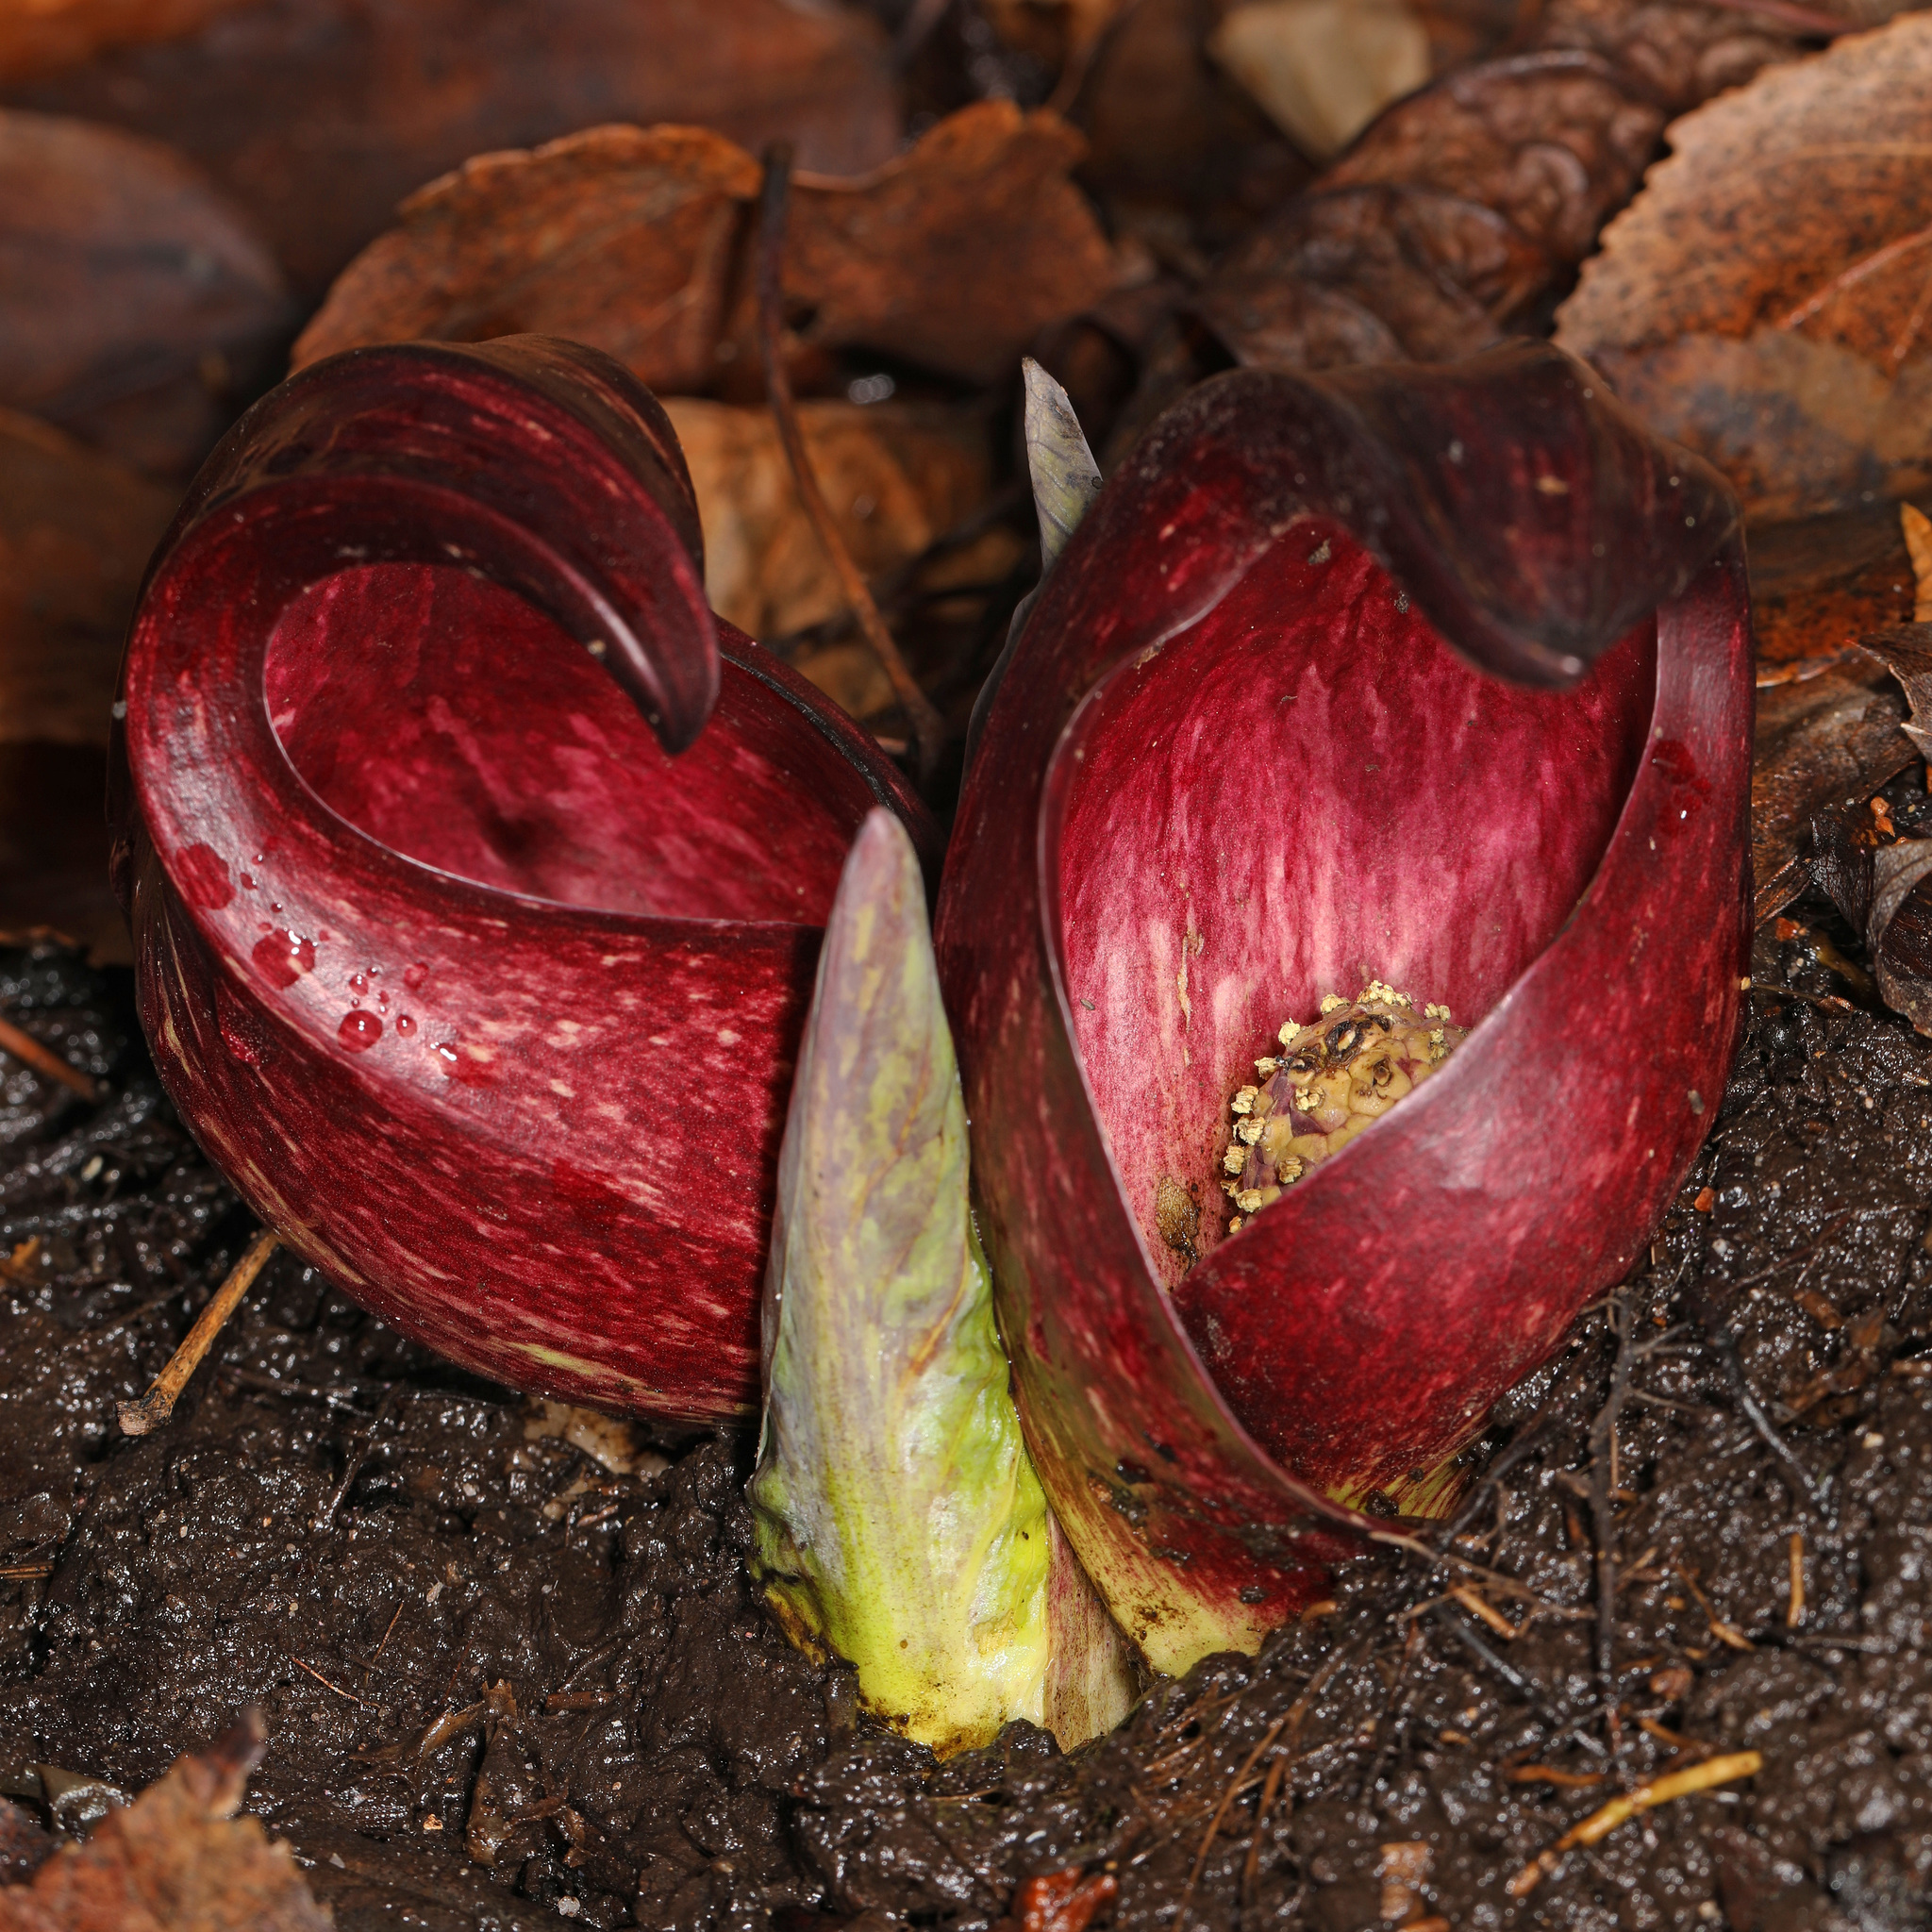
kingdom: Plantae
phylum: Tracheophyta
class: Liliopsida
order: Alismatales
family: Araceae
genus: Symplocarpus
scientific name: Symplocarpus foetidus
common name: Eastern skunk cabbage
